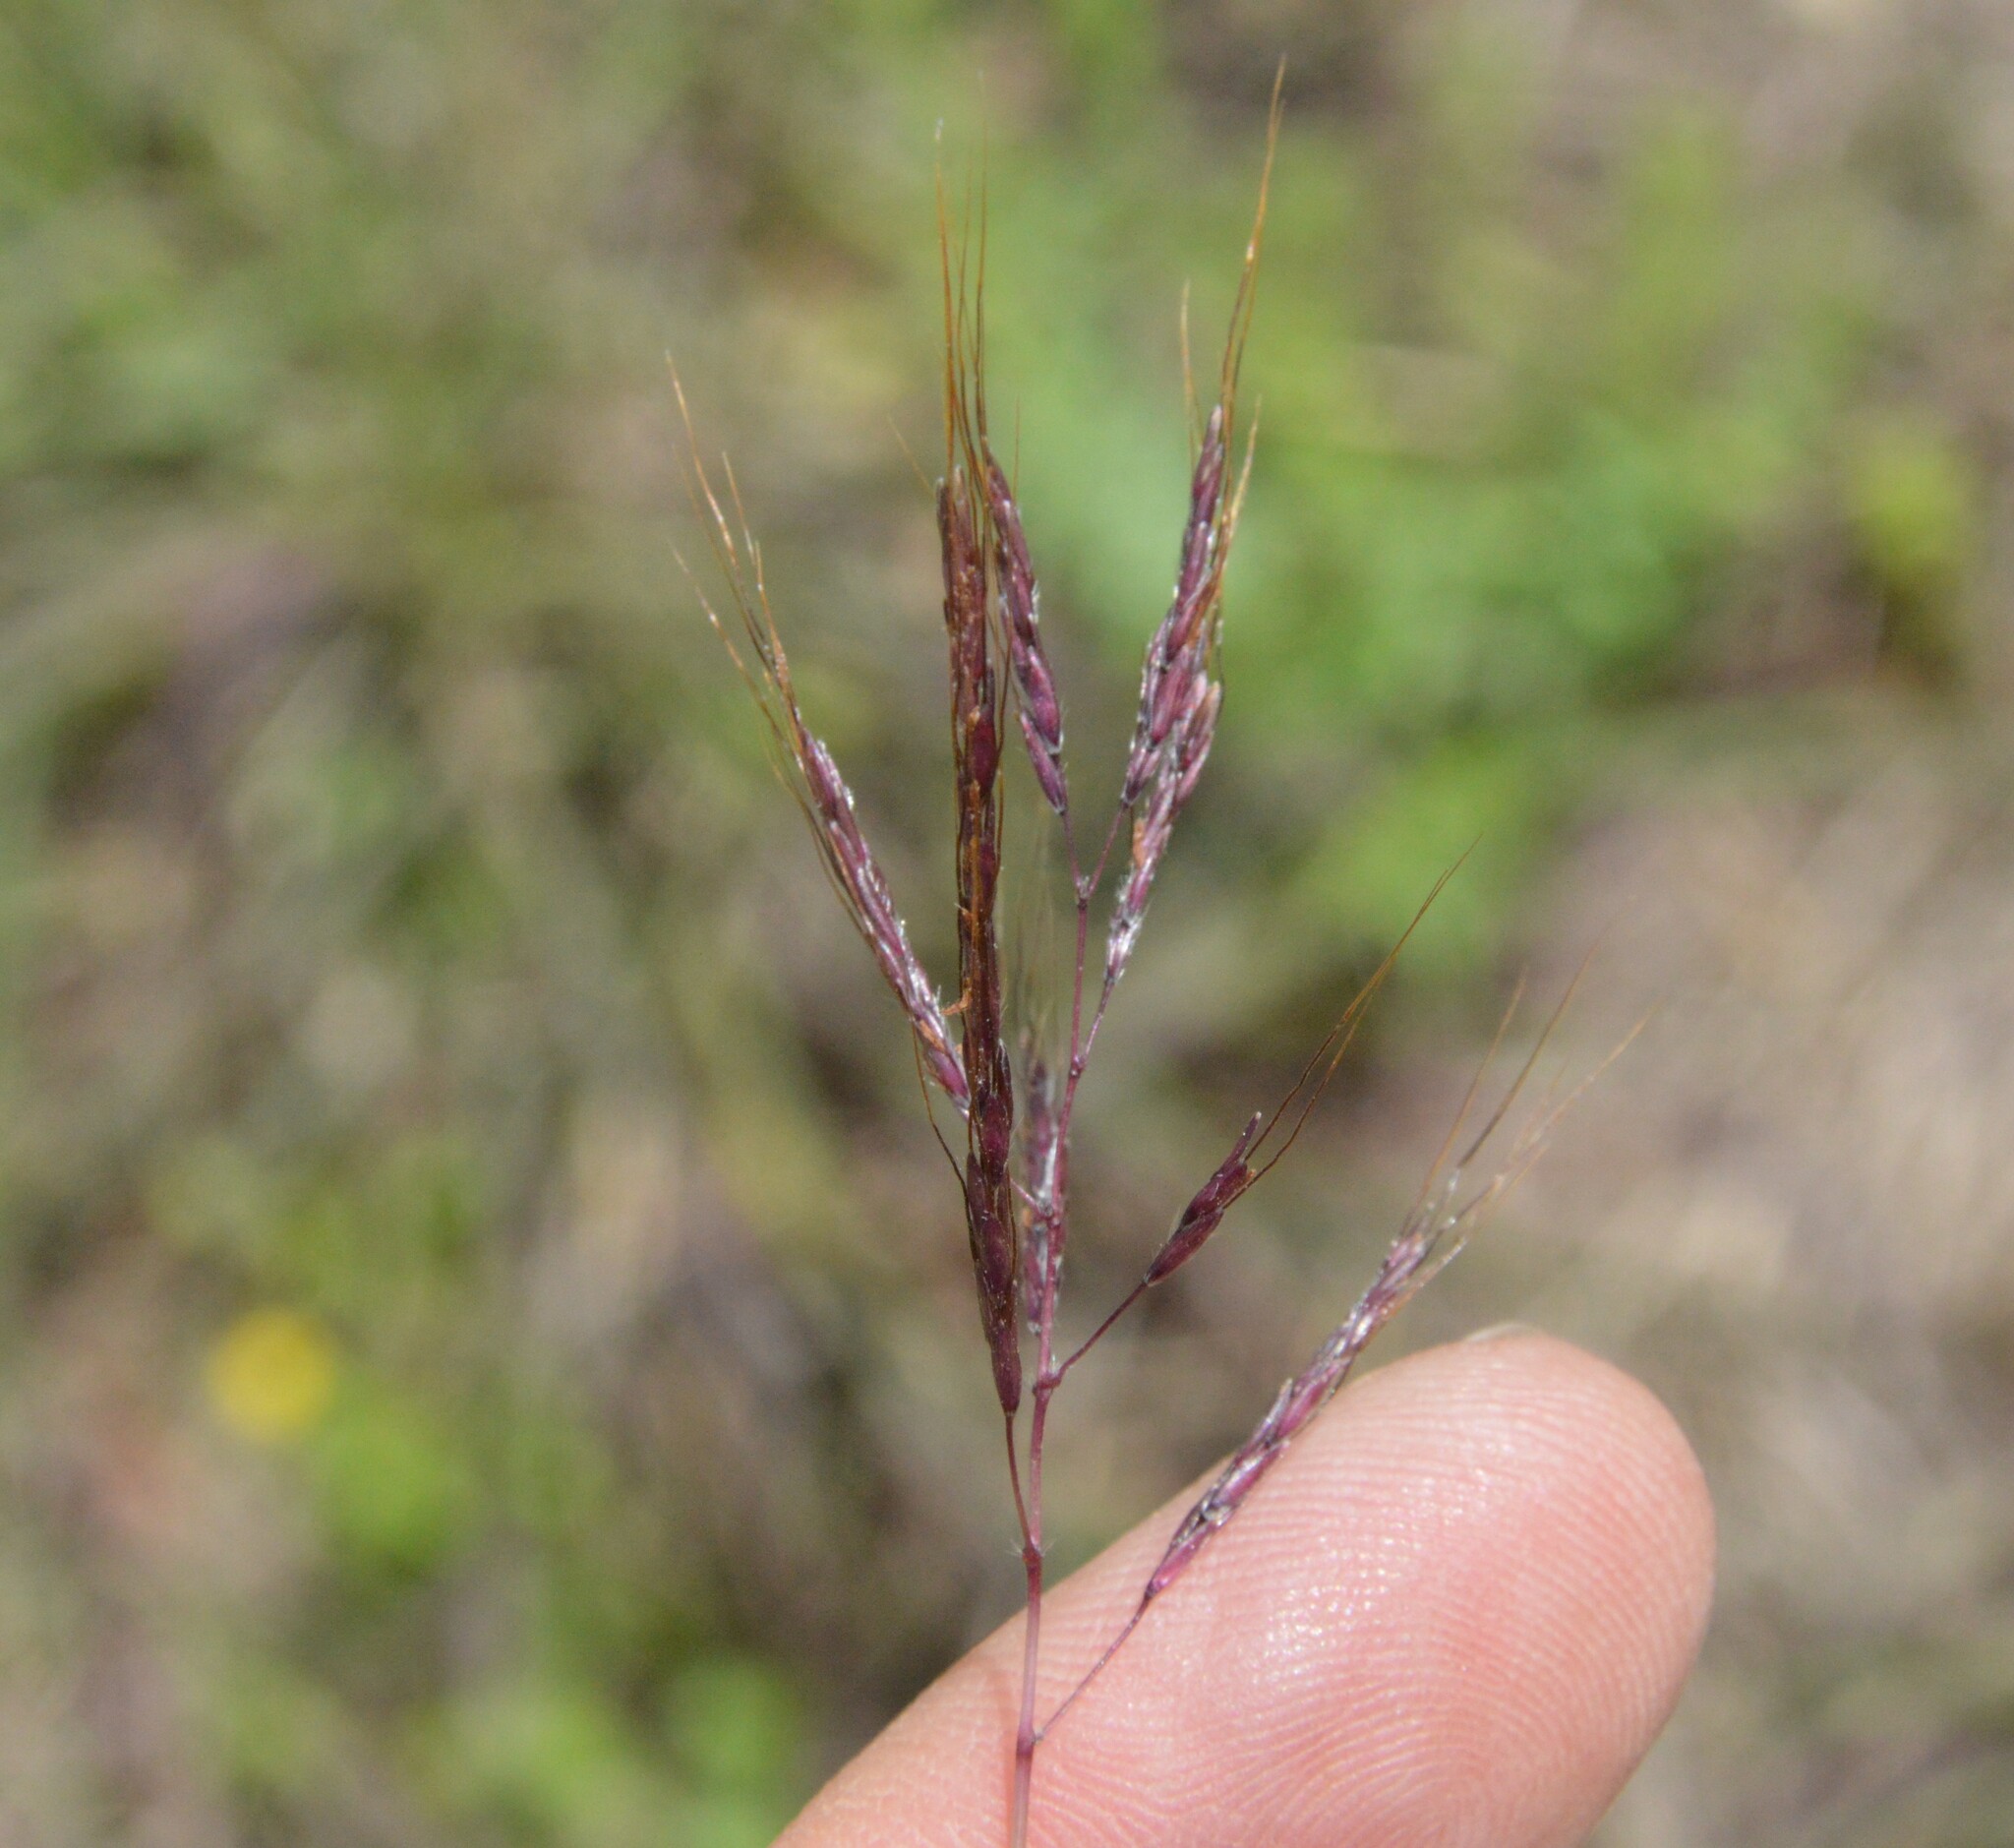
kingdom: Plantae
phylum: Tracheophyta
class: Liliopsida
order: Poales
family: Poaceae
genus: Bothriochloa
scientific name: Bothriochloa bladhii
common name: Caucasian bluestem
